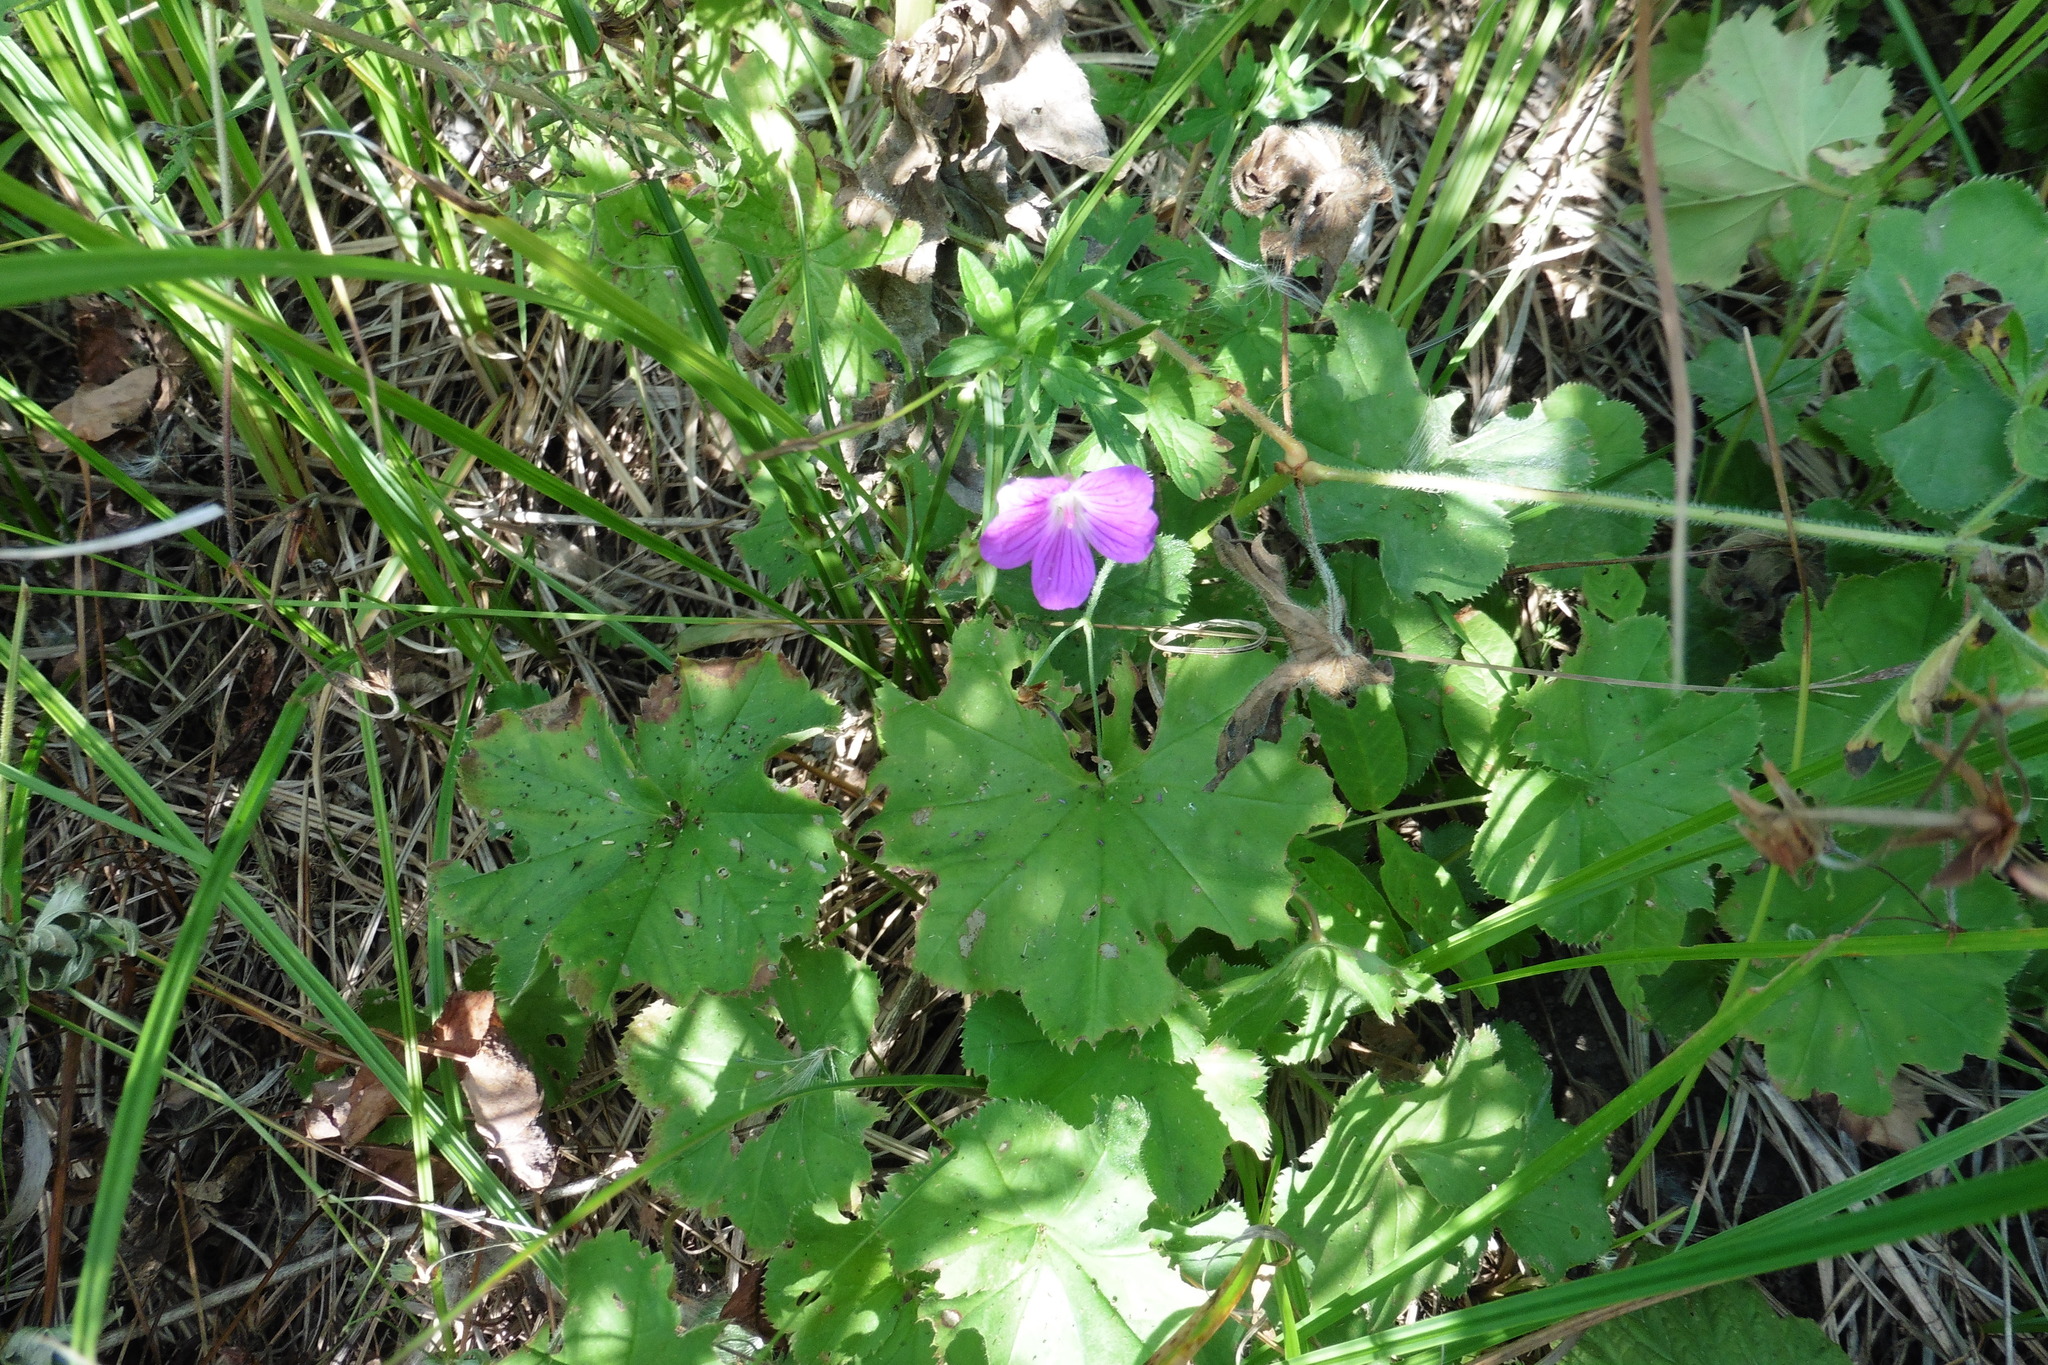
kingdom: Plantae
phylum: Tracheophyta
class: Magnoliopsida
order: Geraniales
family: Geraniaceae
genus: Geranium
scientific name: Geranium palustre
